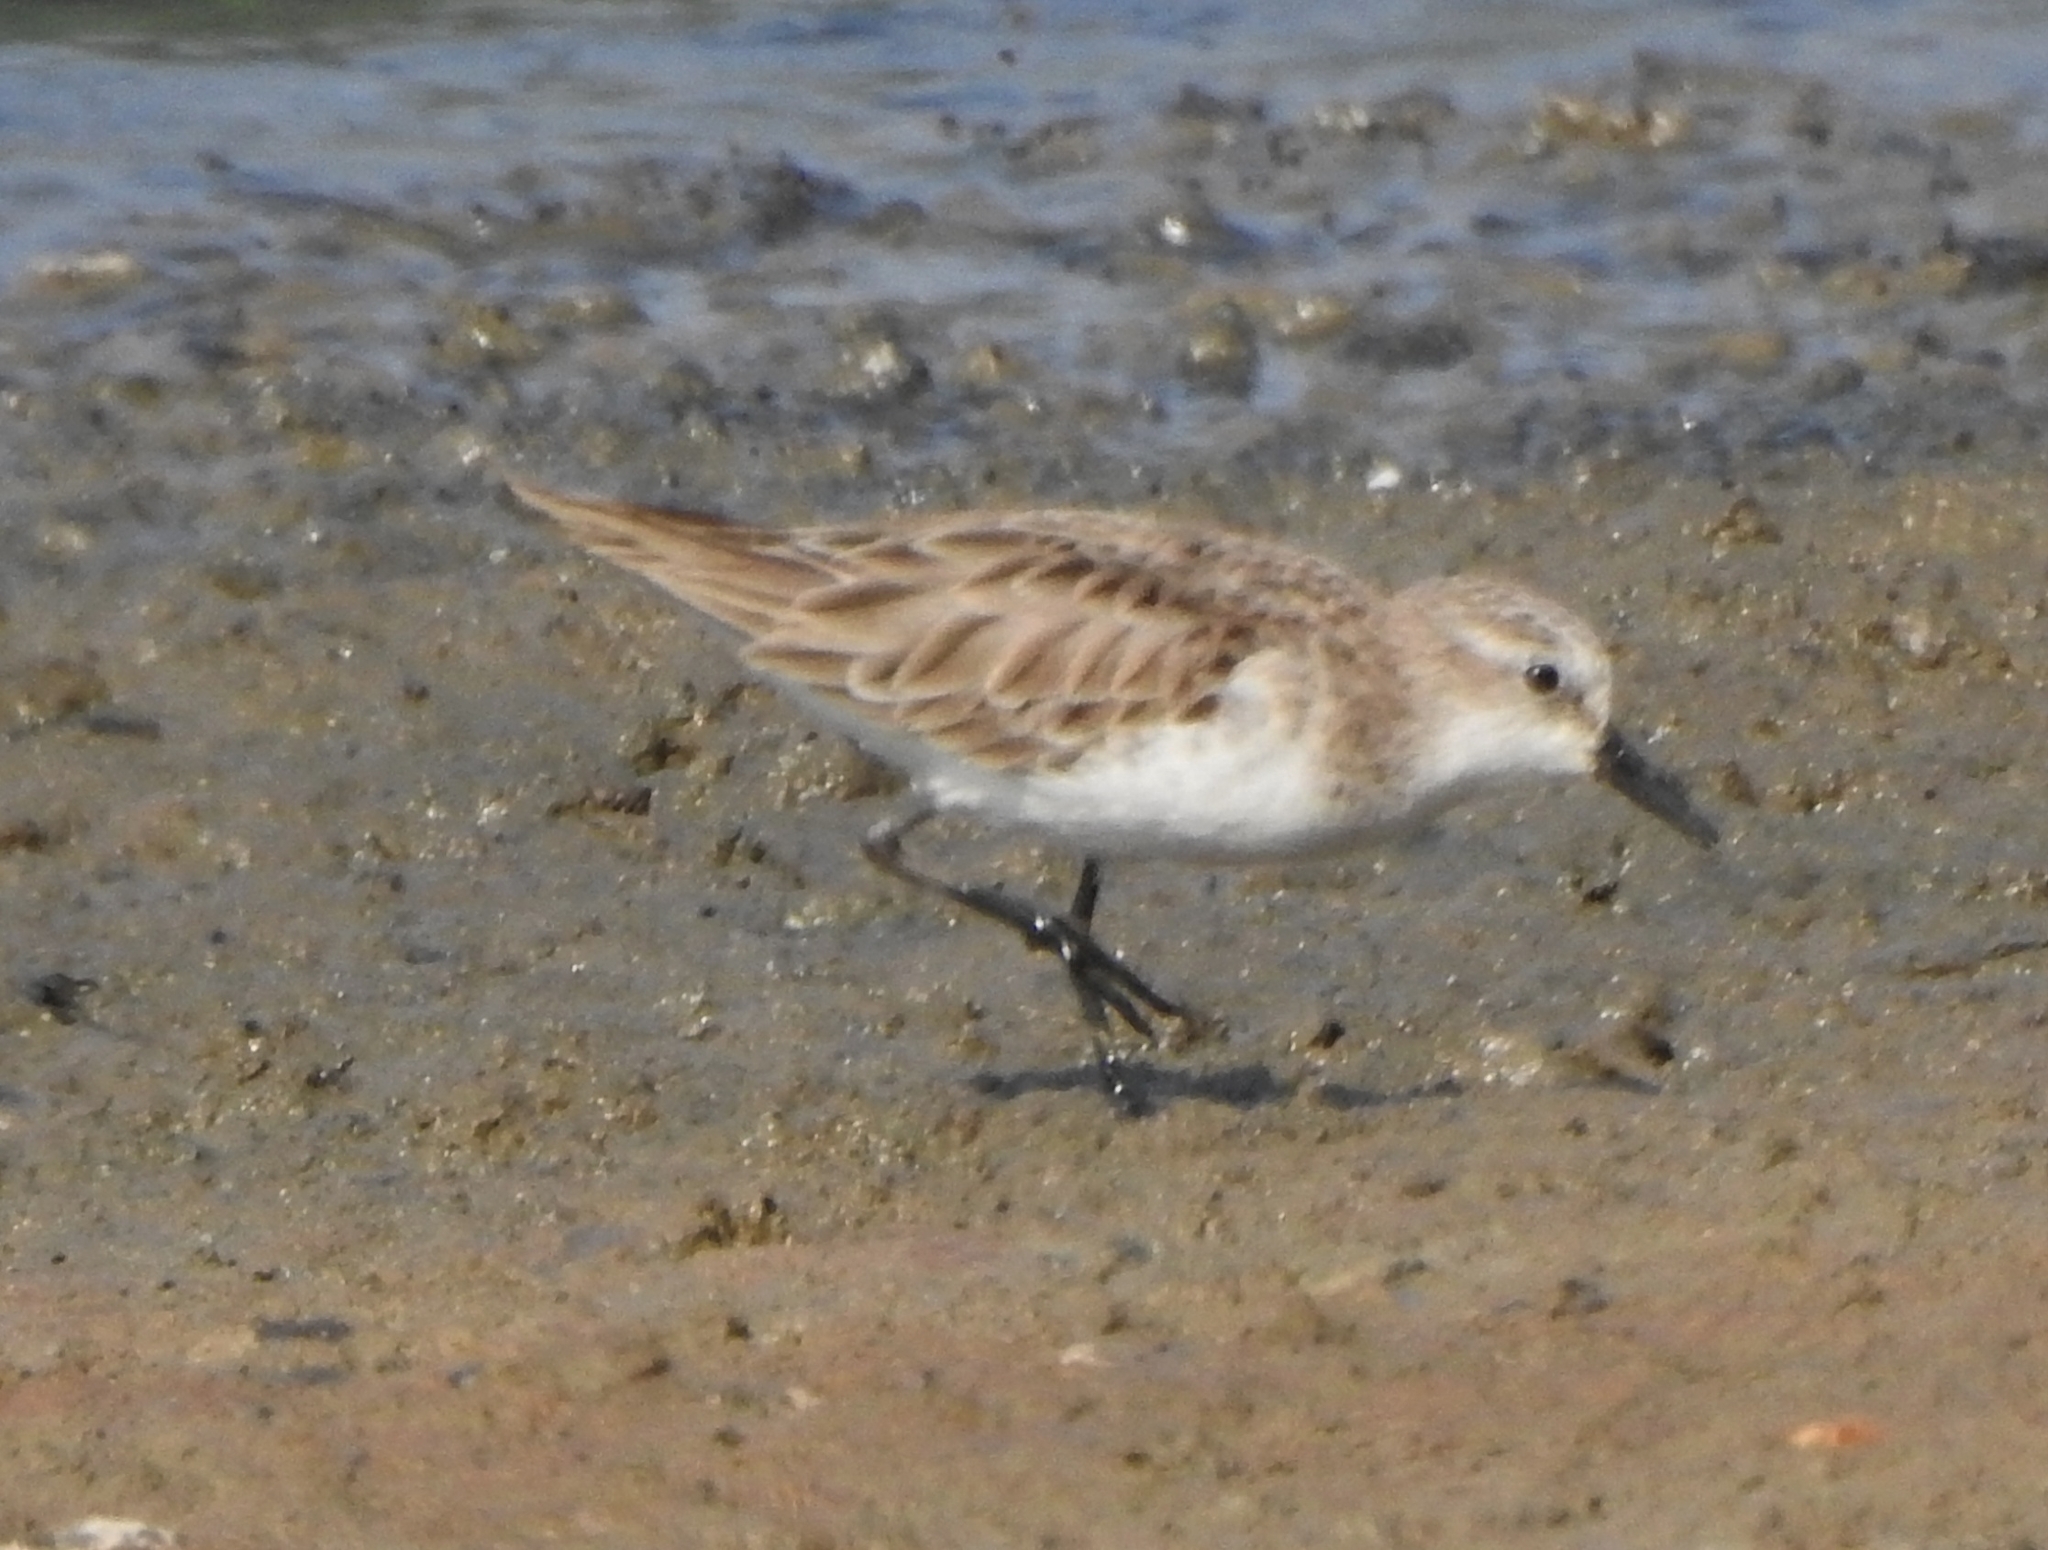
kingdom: Animalia
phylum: Chordata
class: Aves
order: Charadriiformes
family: Scolopacidae
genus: Calidris
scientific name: Calidris minuta
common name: Little stint
